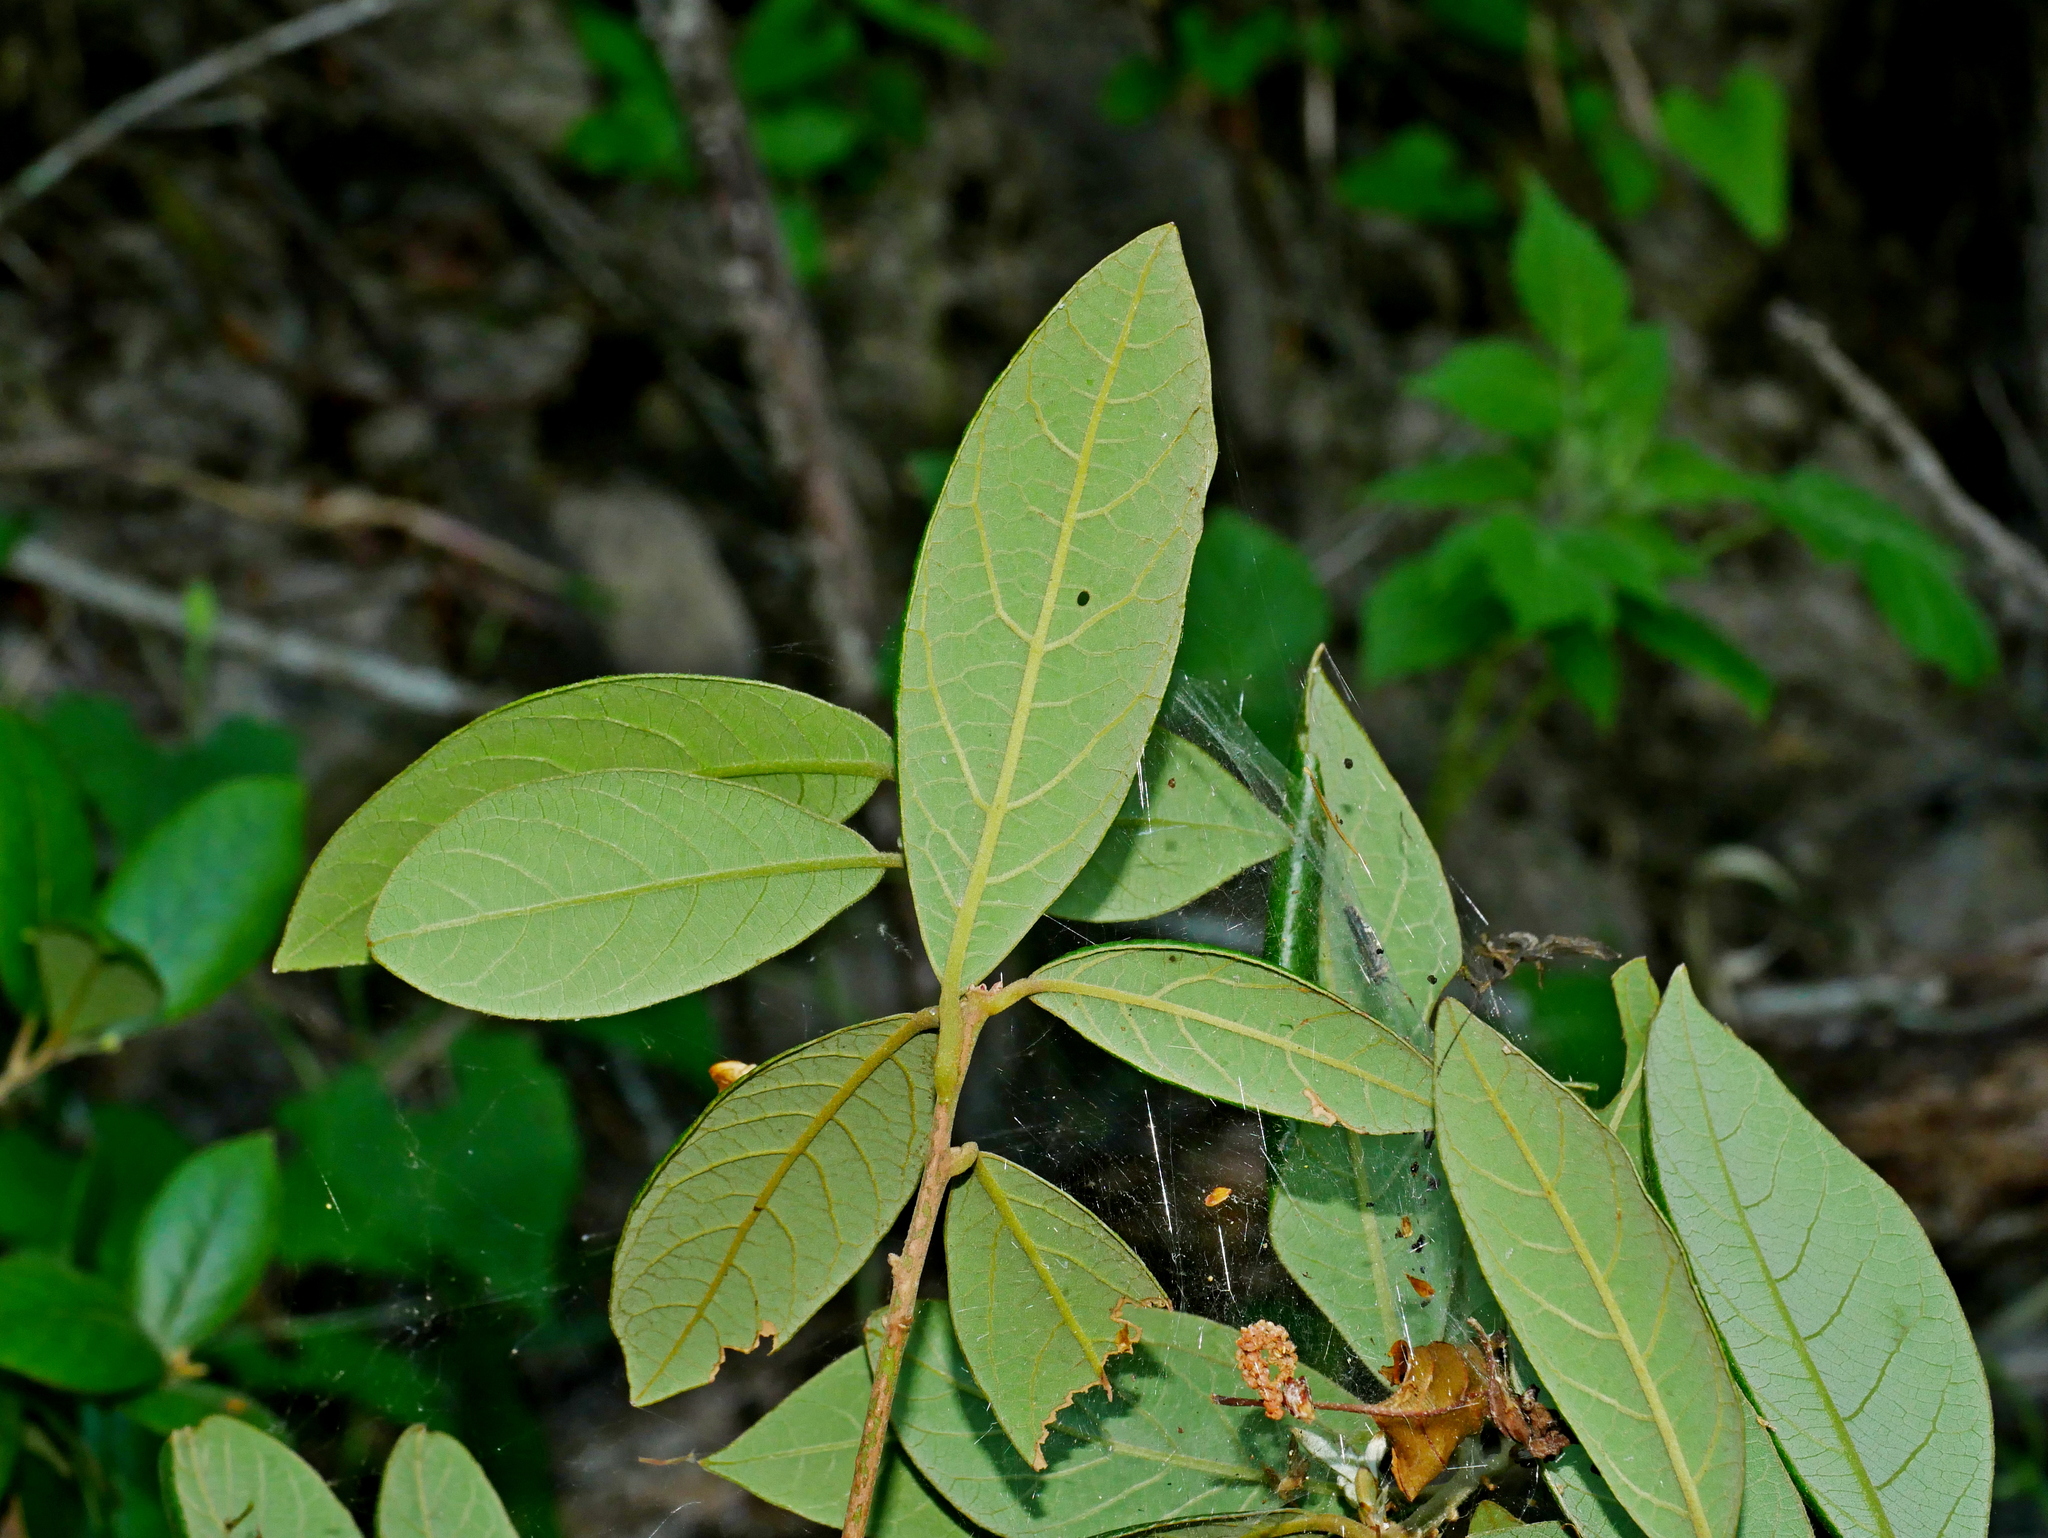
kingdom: Plantae
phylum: Tracheophyta
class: Magnoliopsida
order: Laurales
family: Lauraceae
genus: Litsea
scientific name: Litsea akoensis
